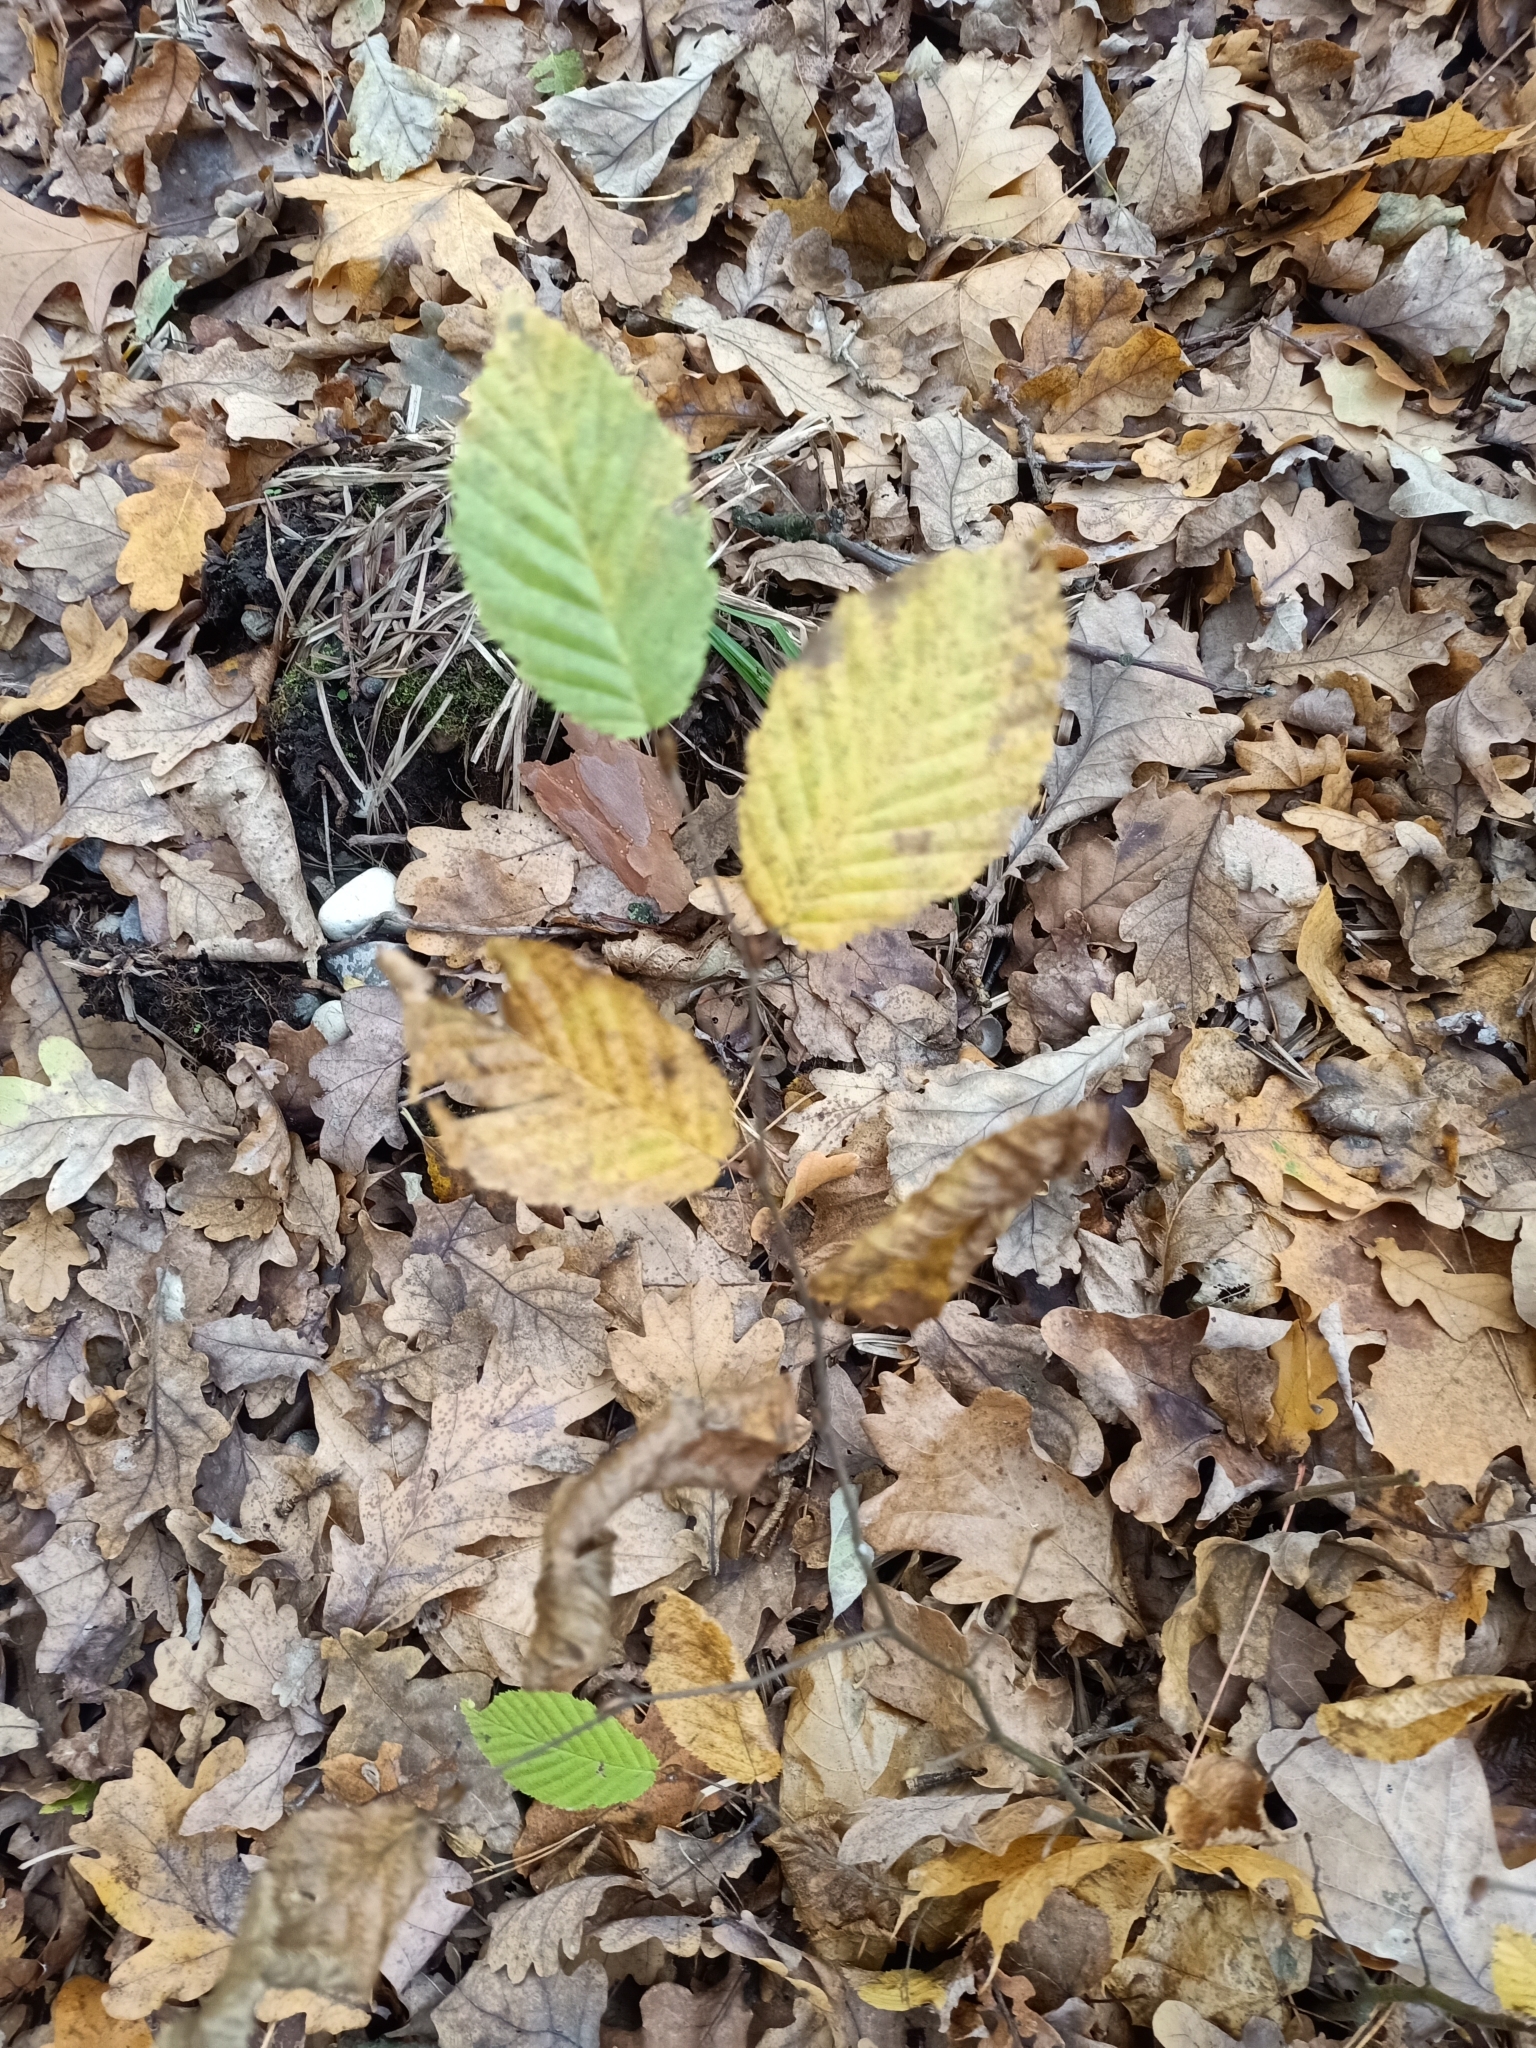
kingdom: Plantae
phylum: Tracheophyta
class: Magnoliopsida
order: Fagales
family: Betulaceae
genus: Carpinus
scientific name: Carpinus betulus
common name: Hornbeam
